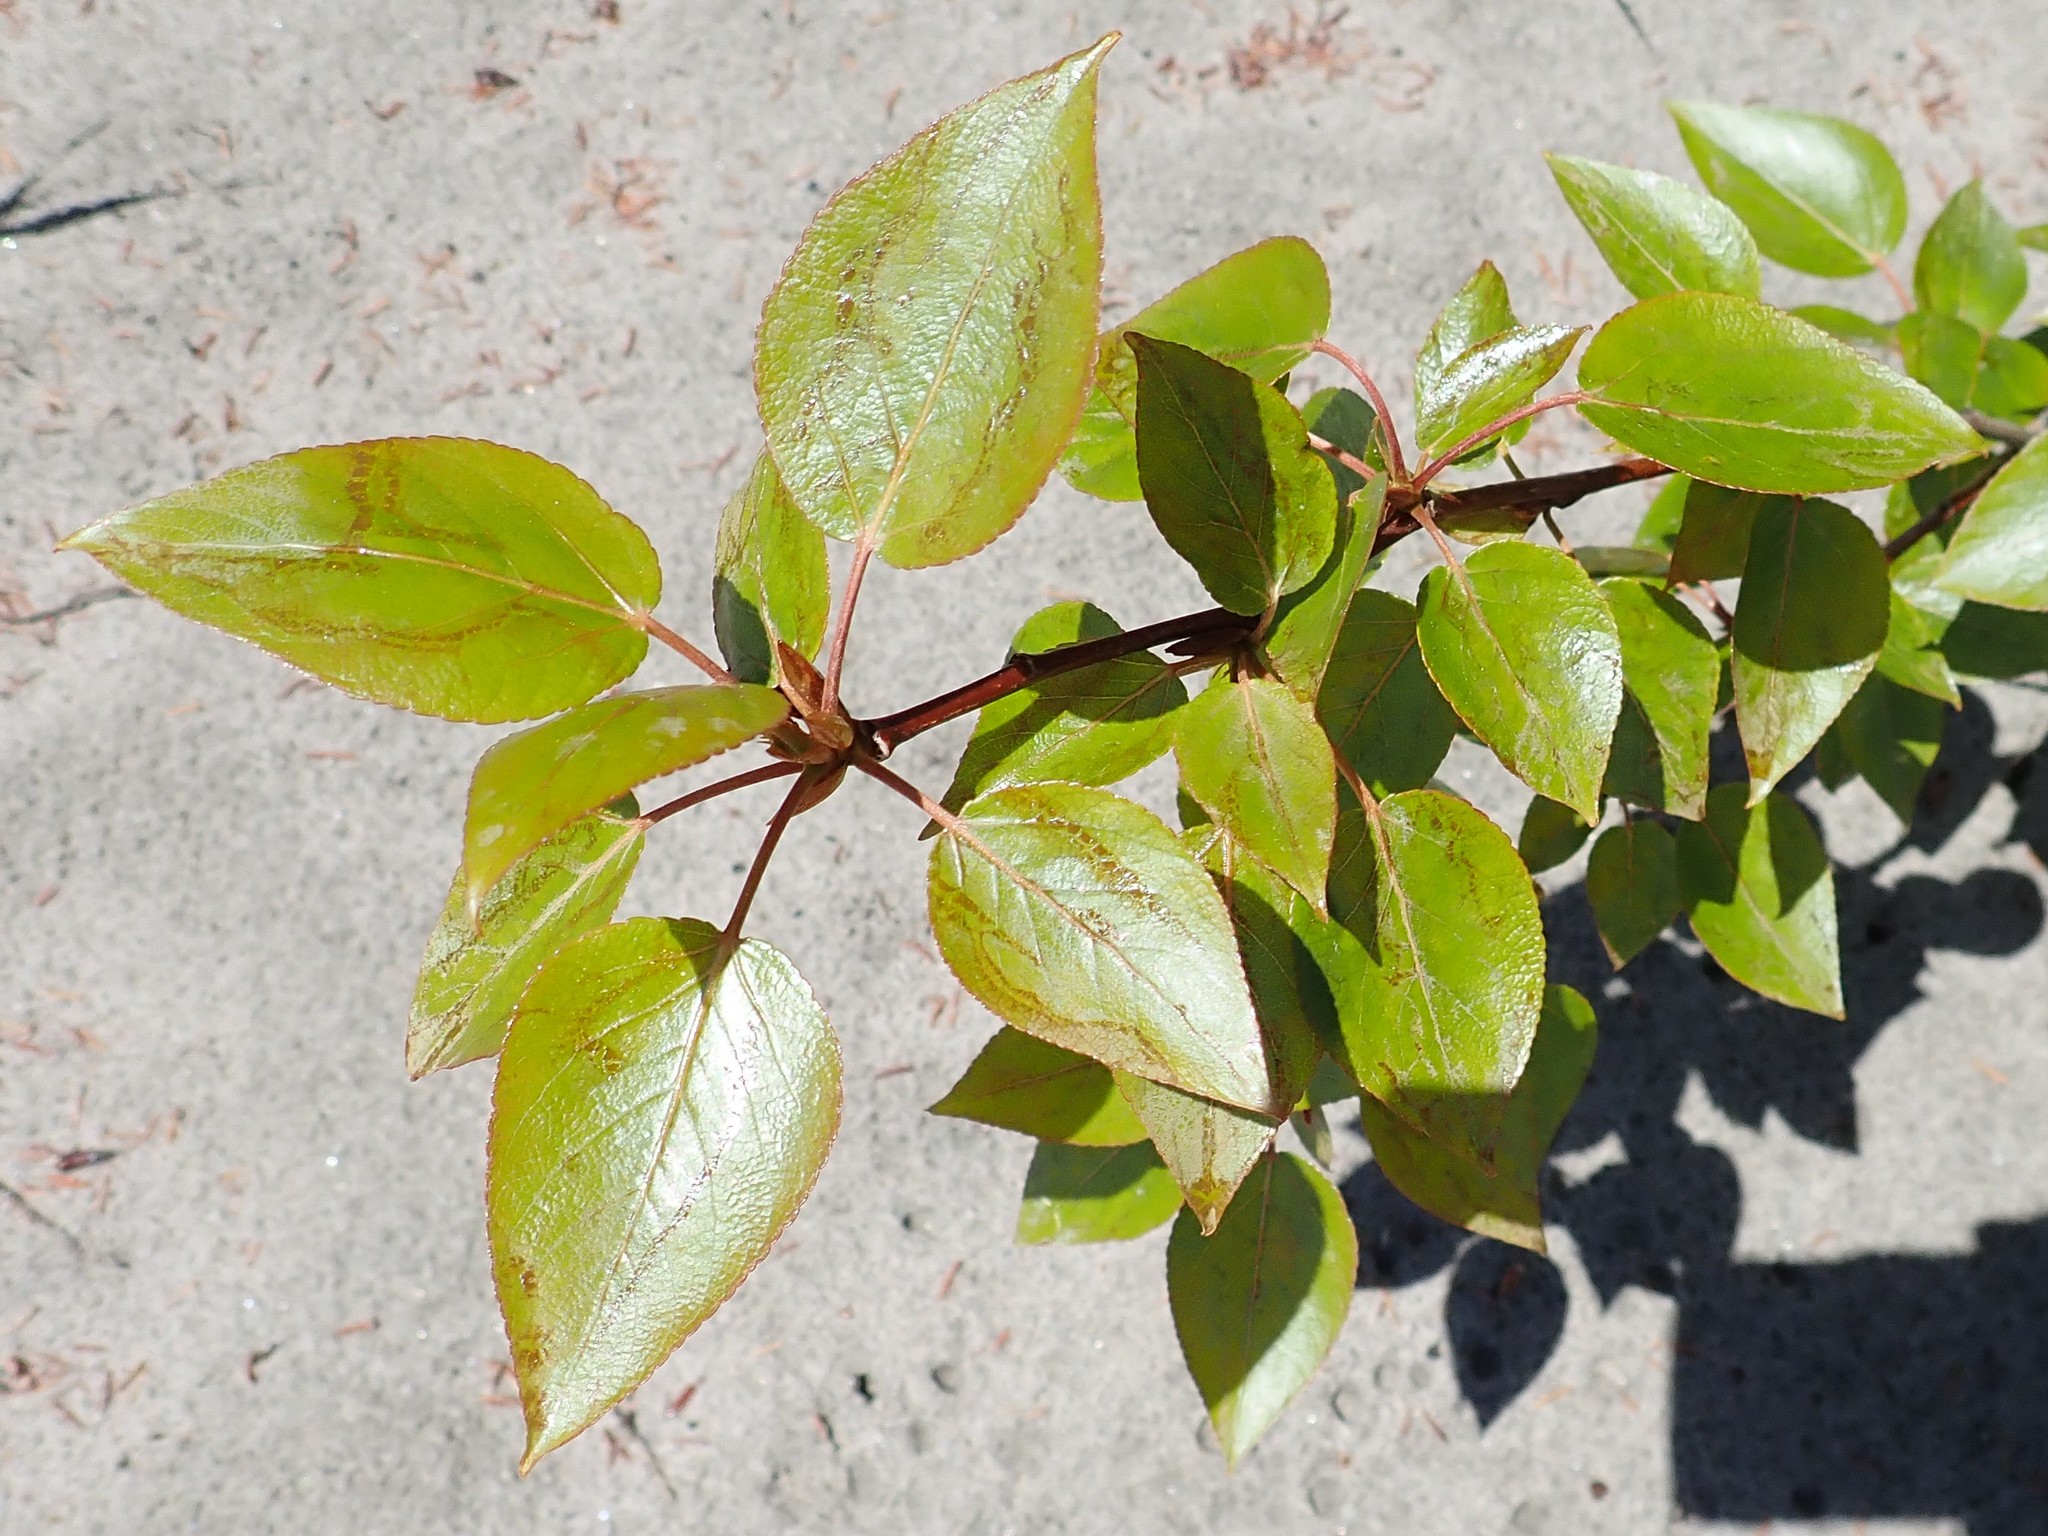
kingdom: Plantae
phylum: Tracheophyta
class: Magnoliopsida
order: Malpighiales
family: Salicaceae
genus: Populus
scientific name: Populus balsamifera
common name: Balsam poplar
